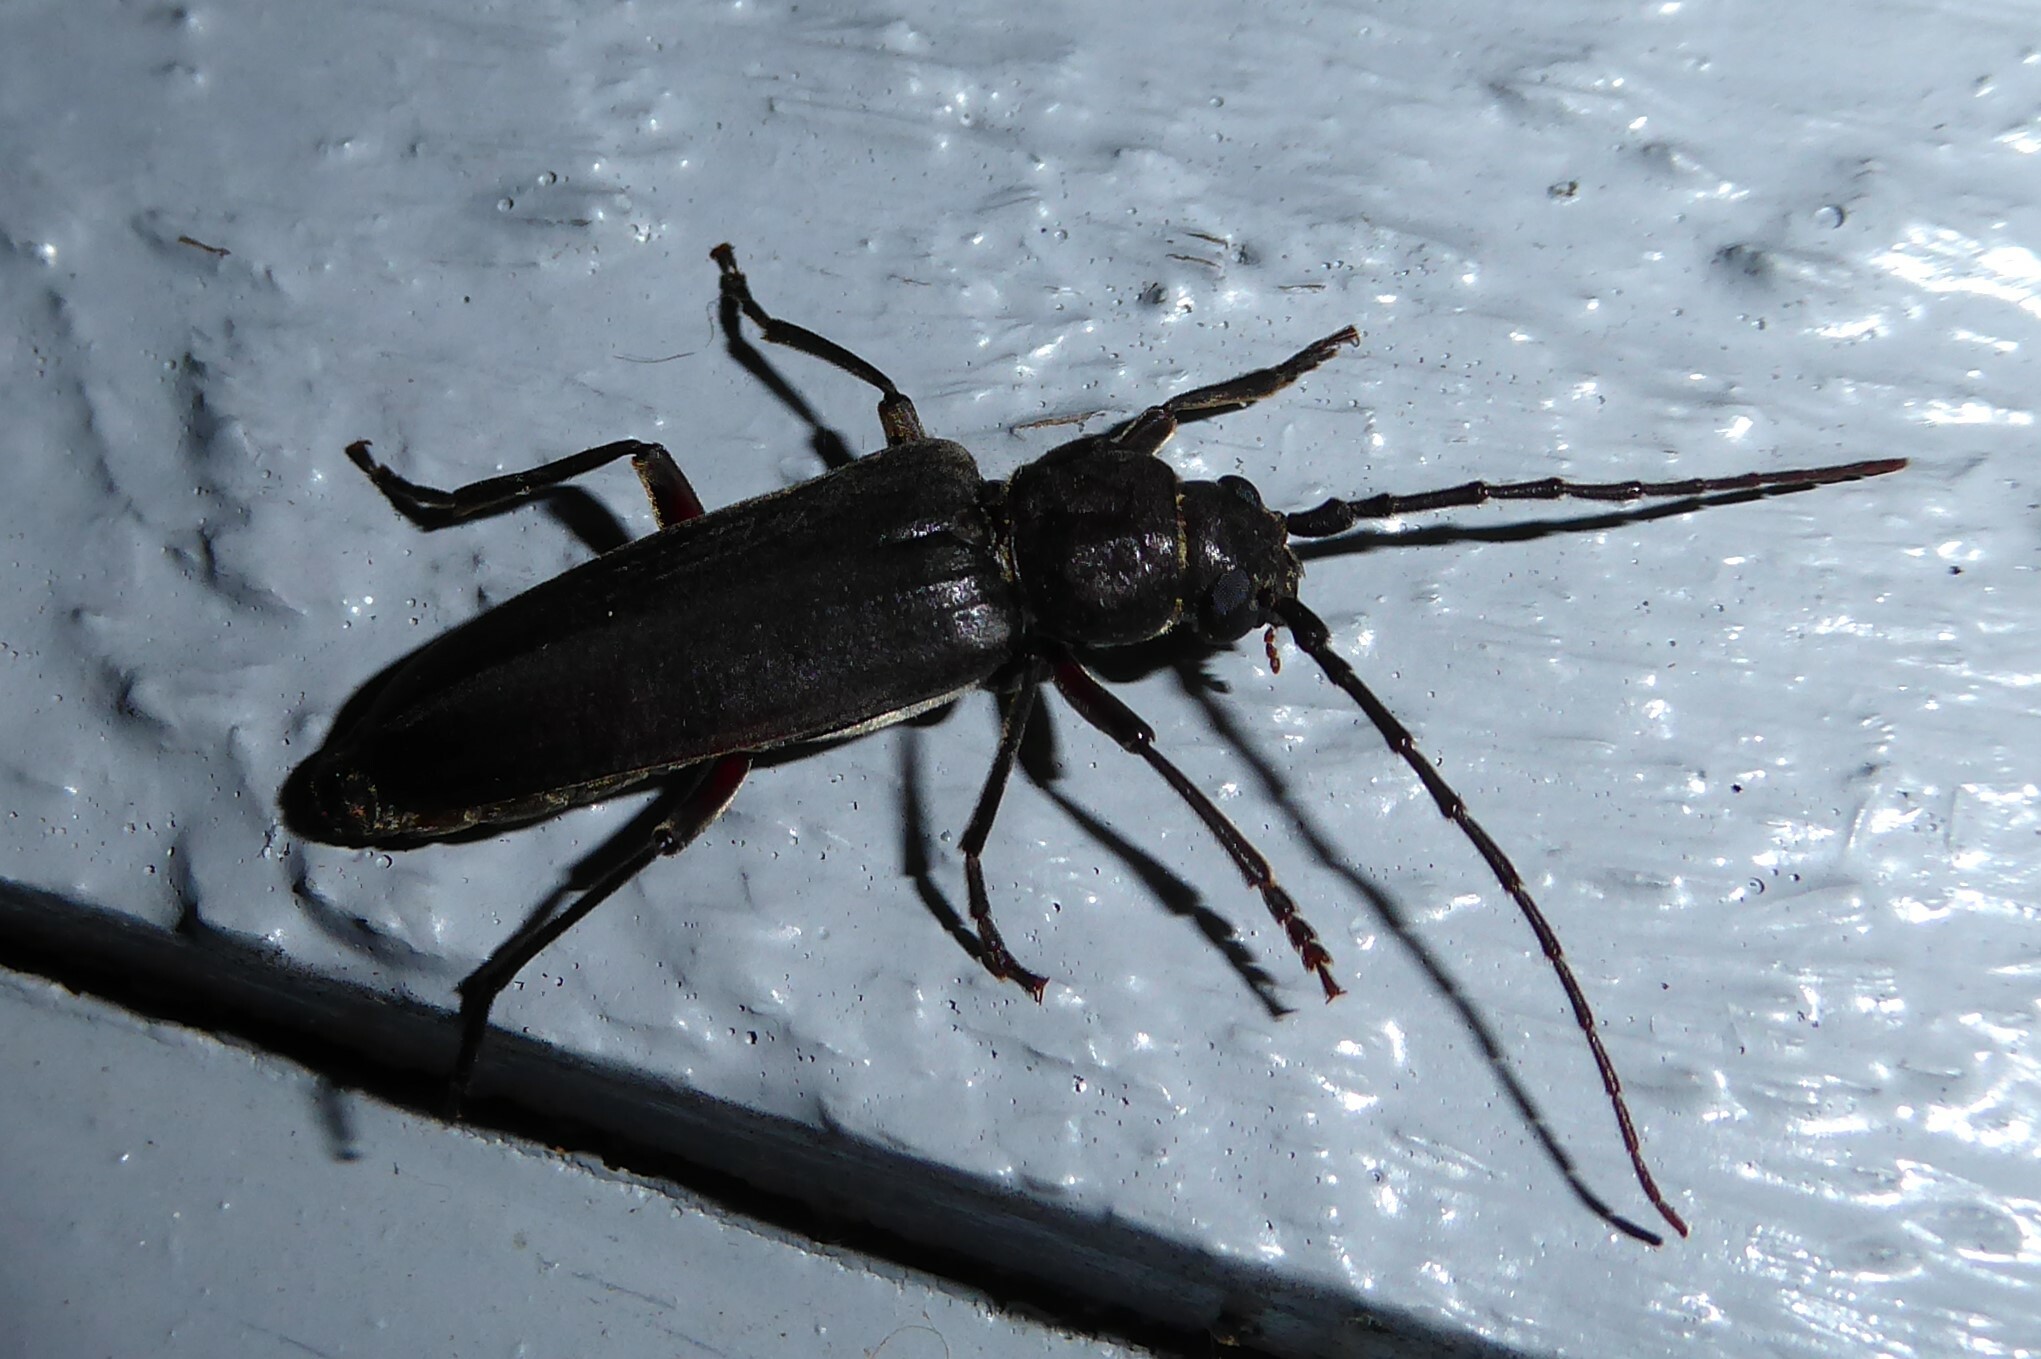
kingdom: Animalia
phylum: Arthropoda
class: Insecta
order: Coleoptera
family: Cerambycidae
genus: Arhopalus
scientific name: Arhopalus ferus
